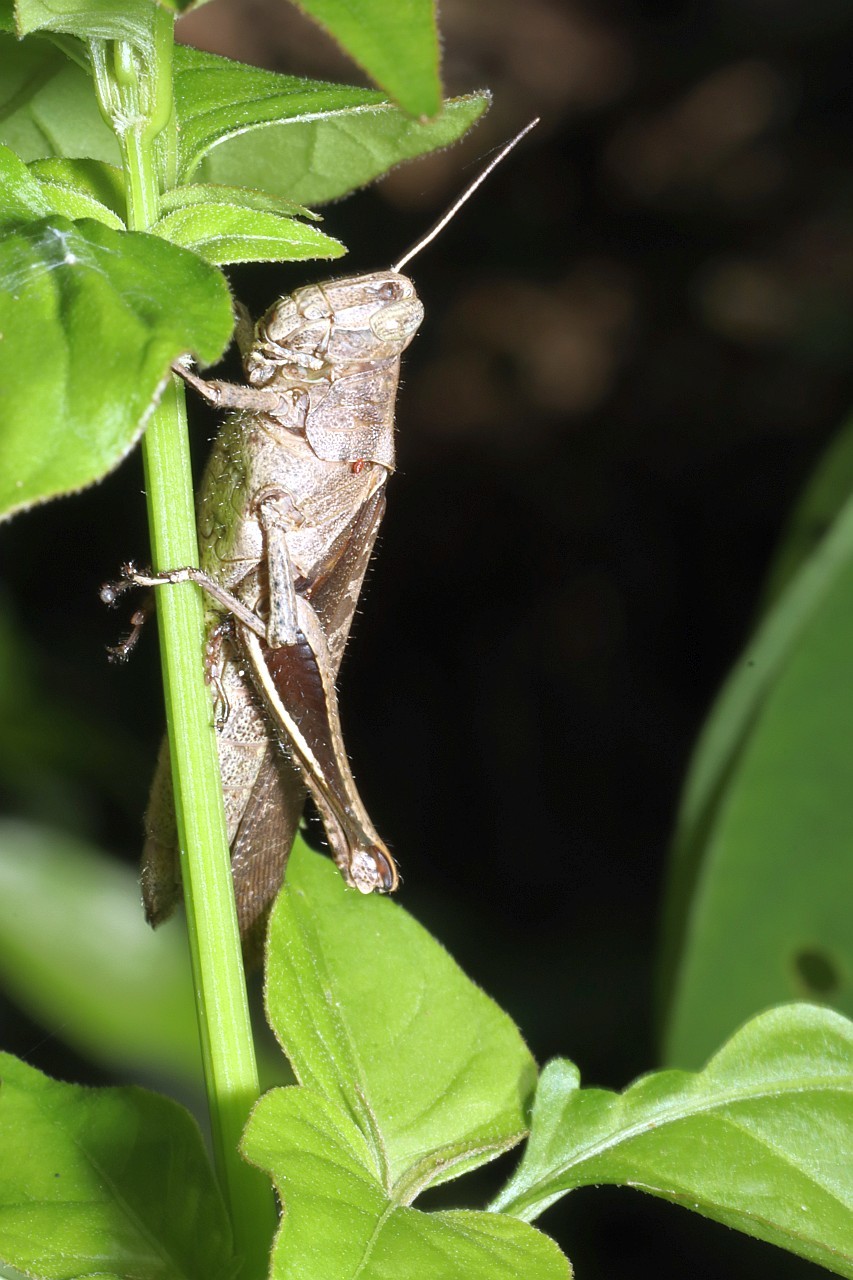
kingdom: Animalia
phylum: Arthropoda
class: Insecta
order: Orthoptera
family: Acrididae
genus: Abracris
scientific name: Abracris flavolineata
